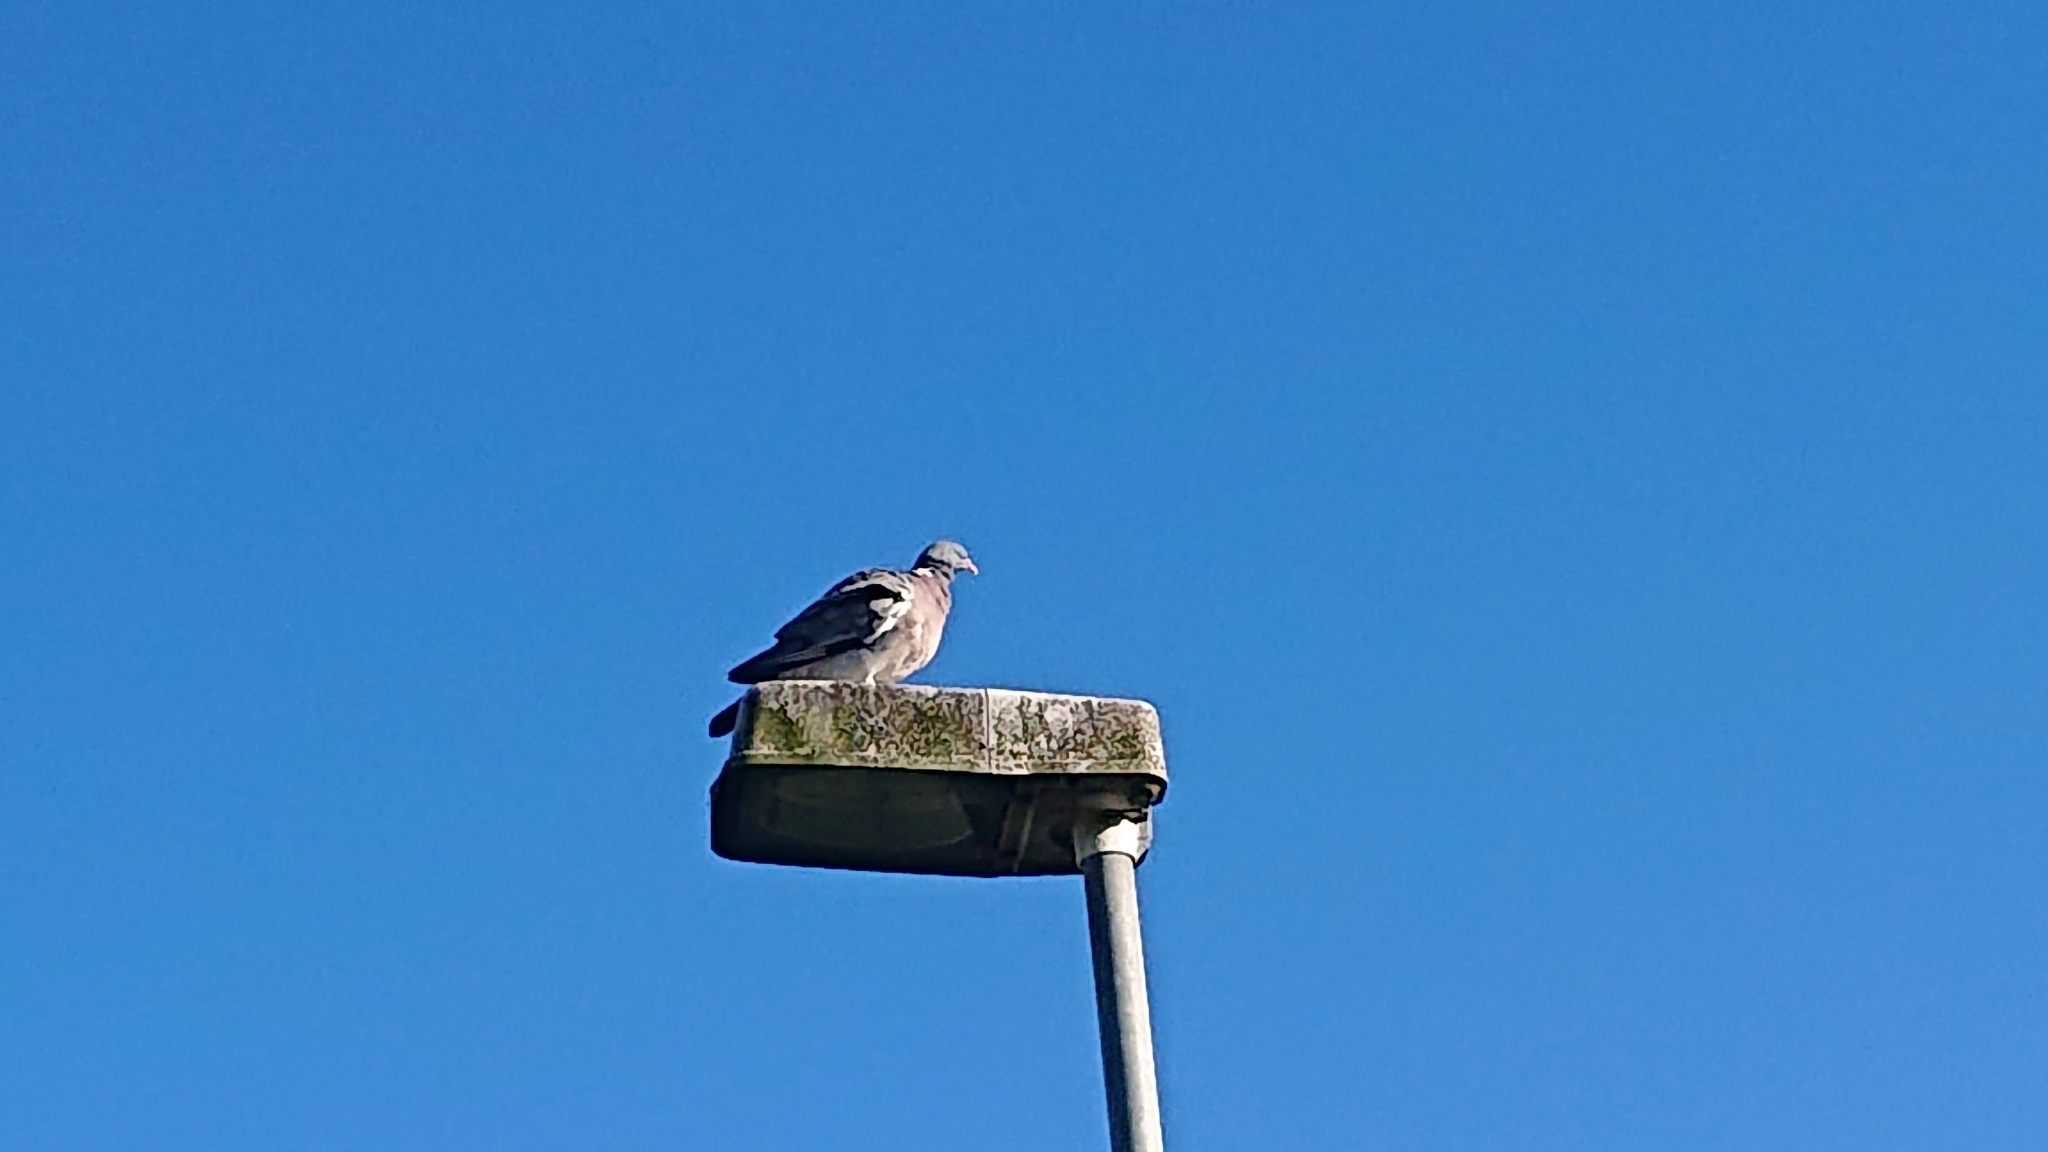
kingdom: Animalia
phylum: Chordata
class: Aves
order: Columbiformes
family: Columbidae
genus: Columba
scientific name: Columba palumbus
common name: Common wood pigeon
